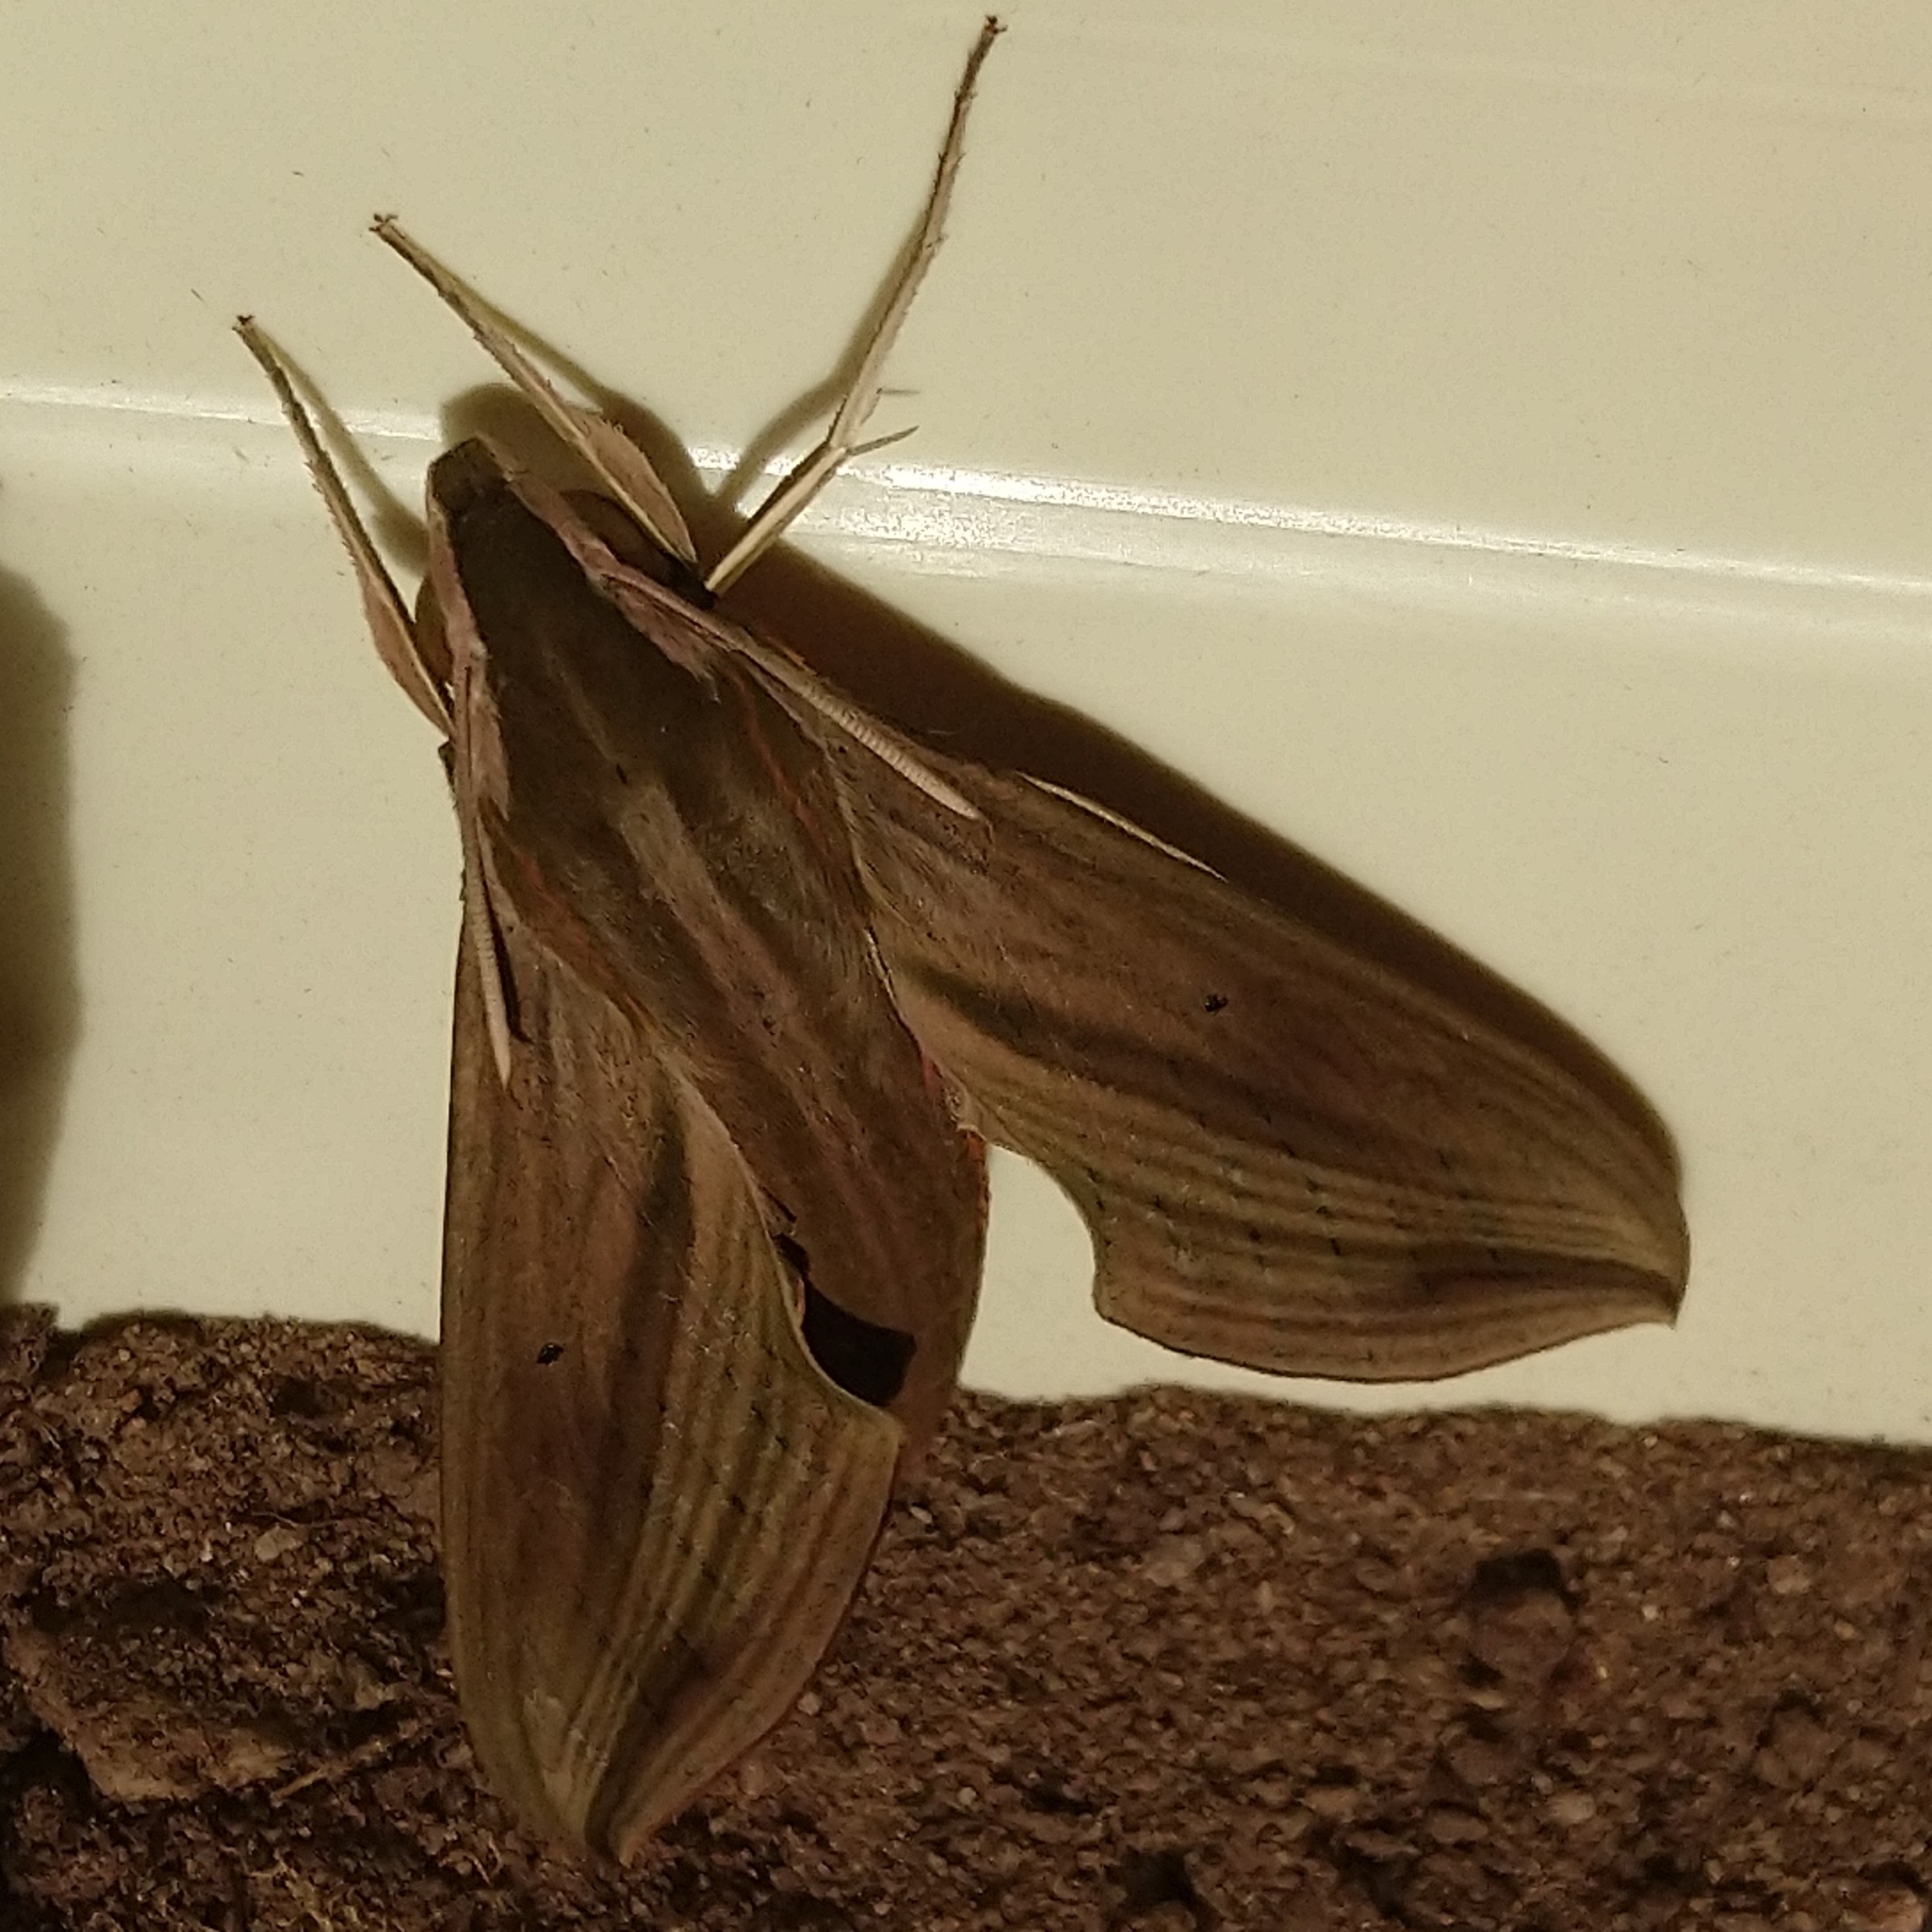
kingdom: Animalia
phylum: Arthropoda
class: Insecta
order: Lepidoptera
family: Sphingidae
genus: Hippotion
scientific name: Hippotion eson
